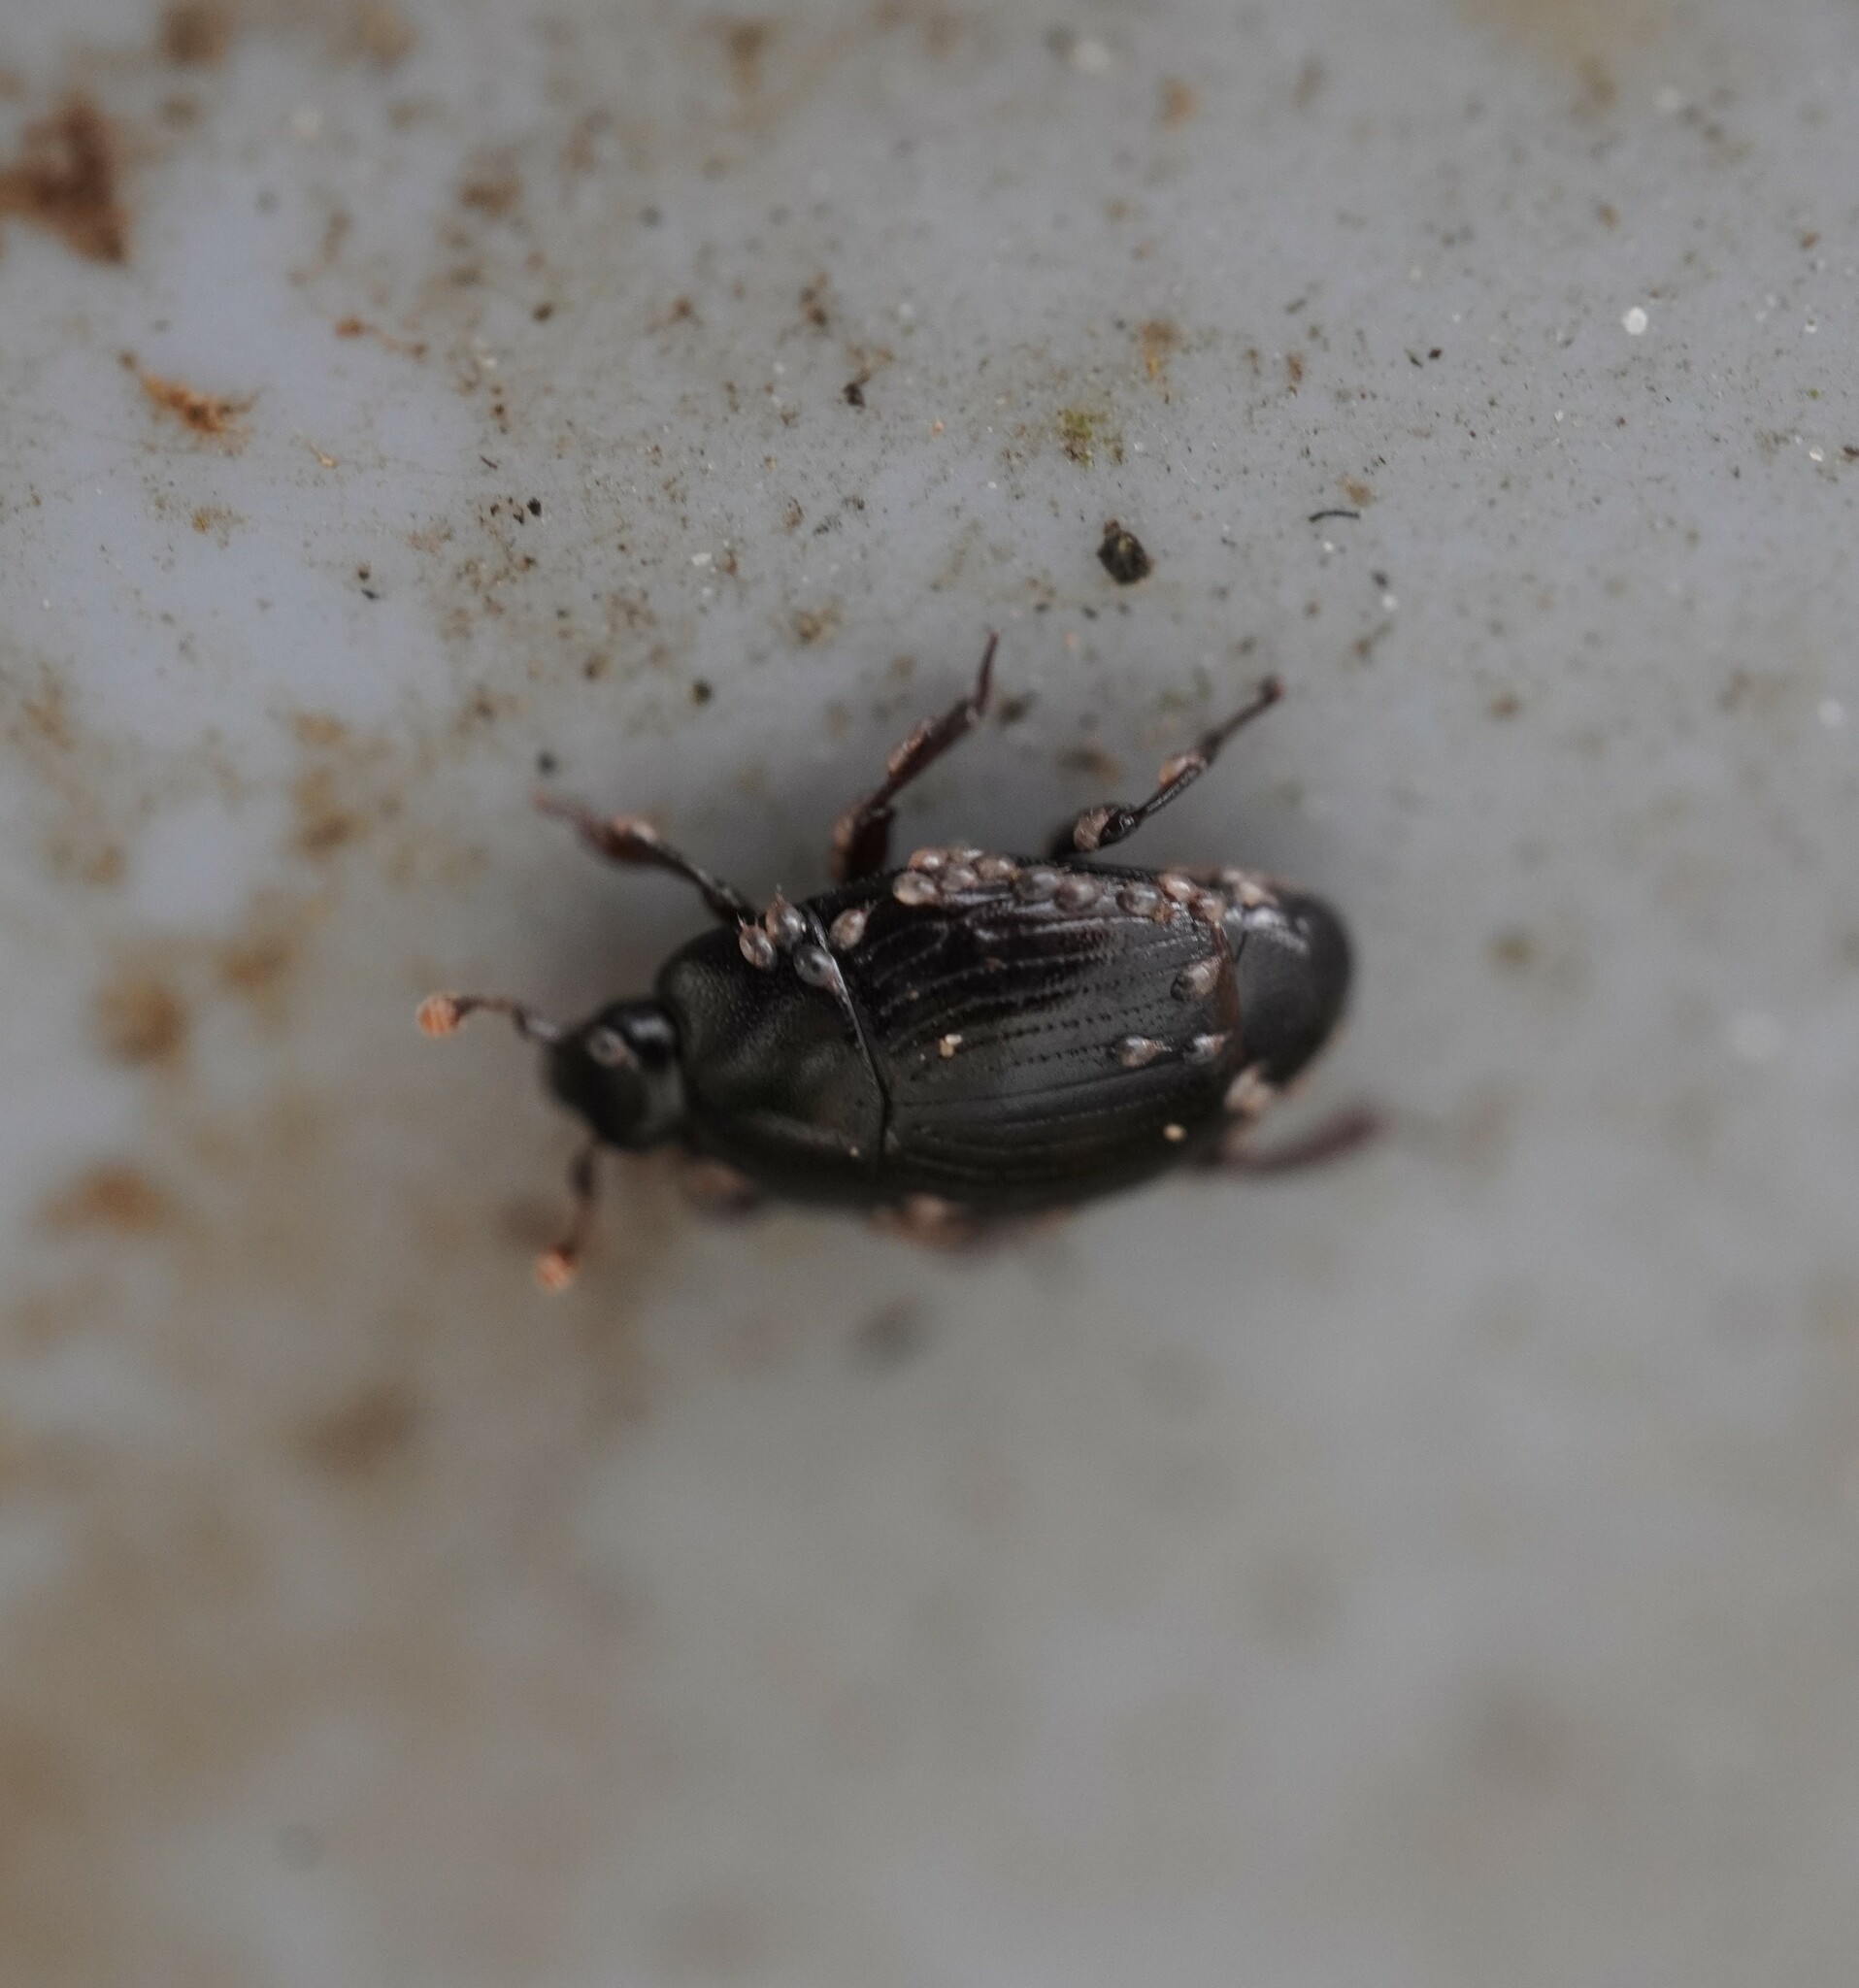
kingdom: Animalia
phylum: Arthropoda
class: Insecta
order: Coleoptera
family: Histeridae
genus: Carcinops
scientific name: Carcinops pumilio
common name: Clown beetle
